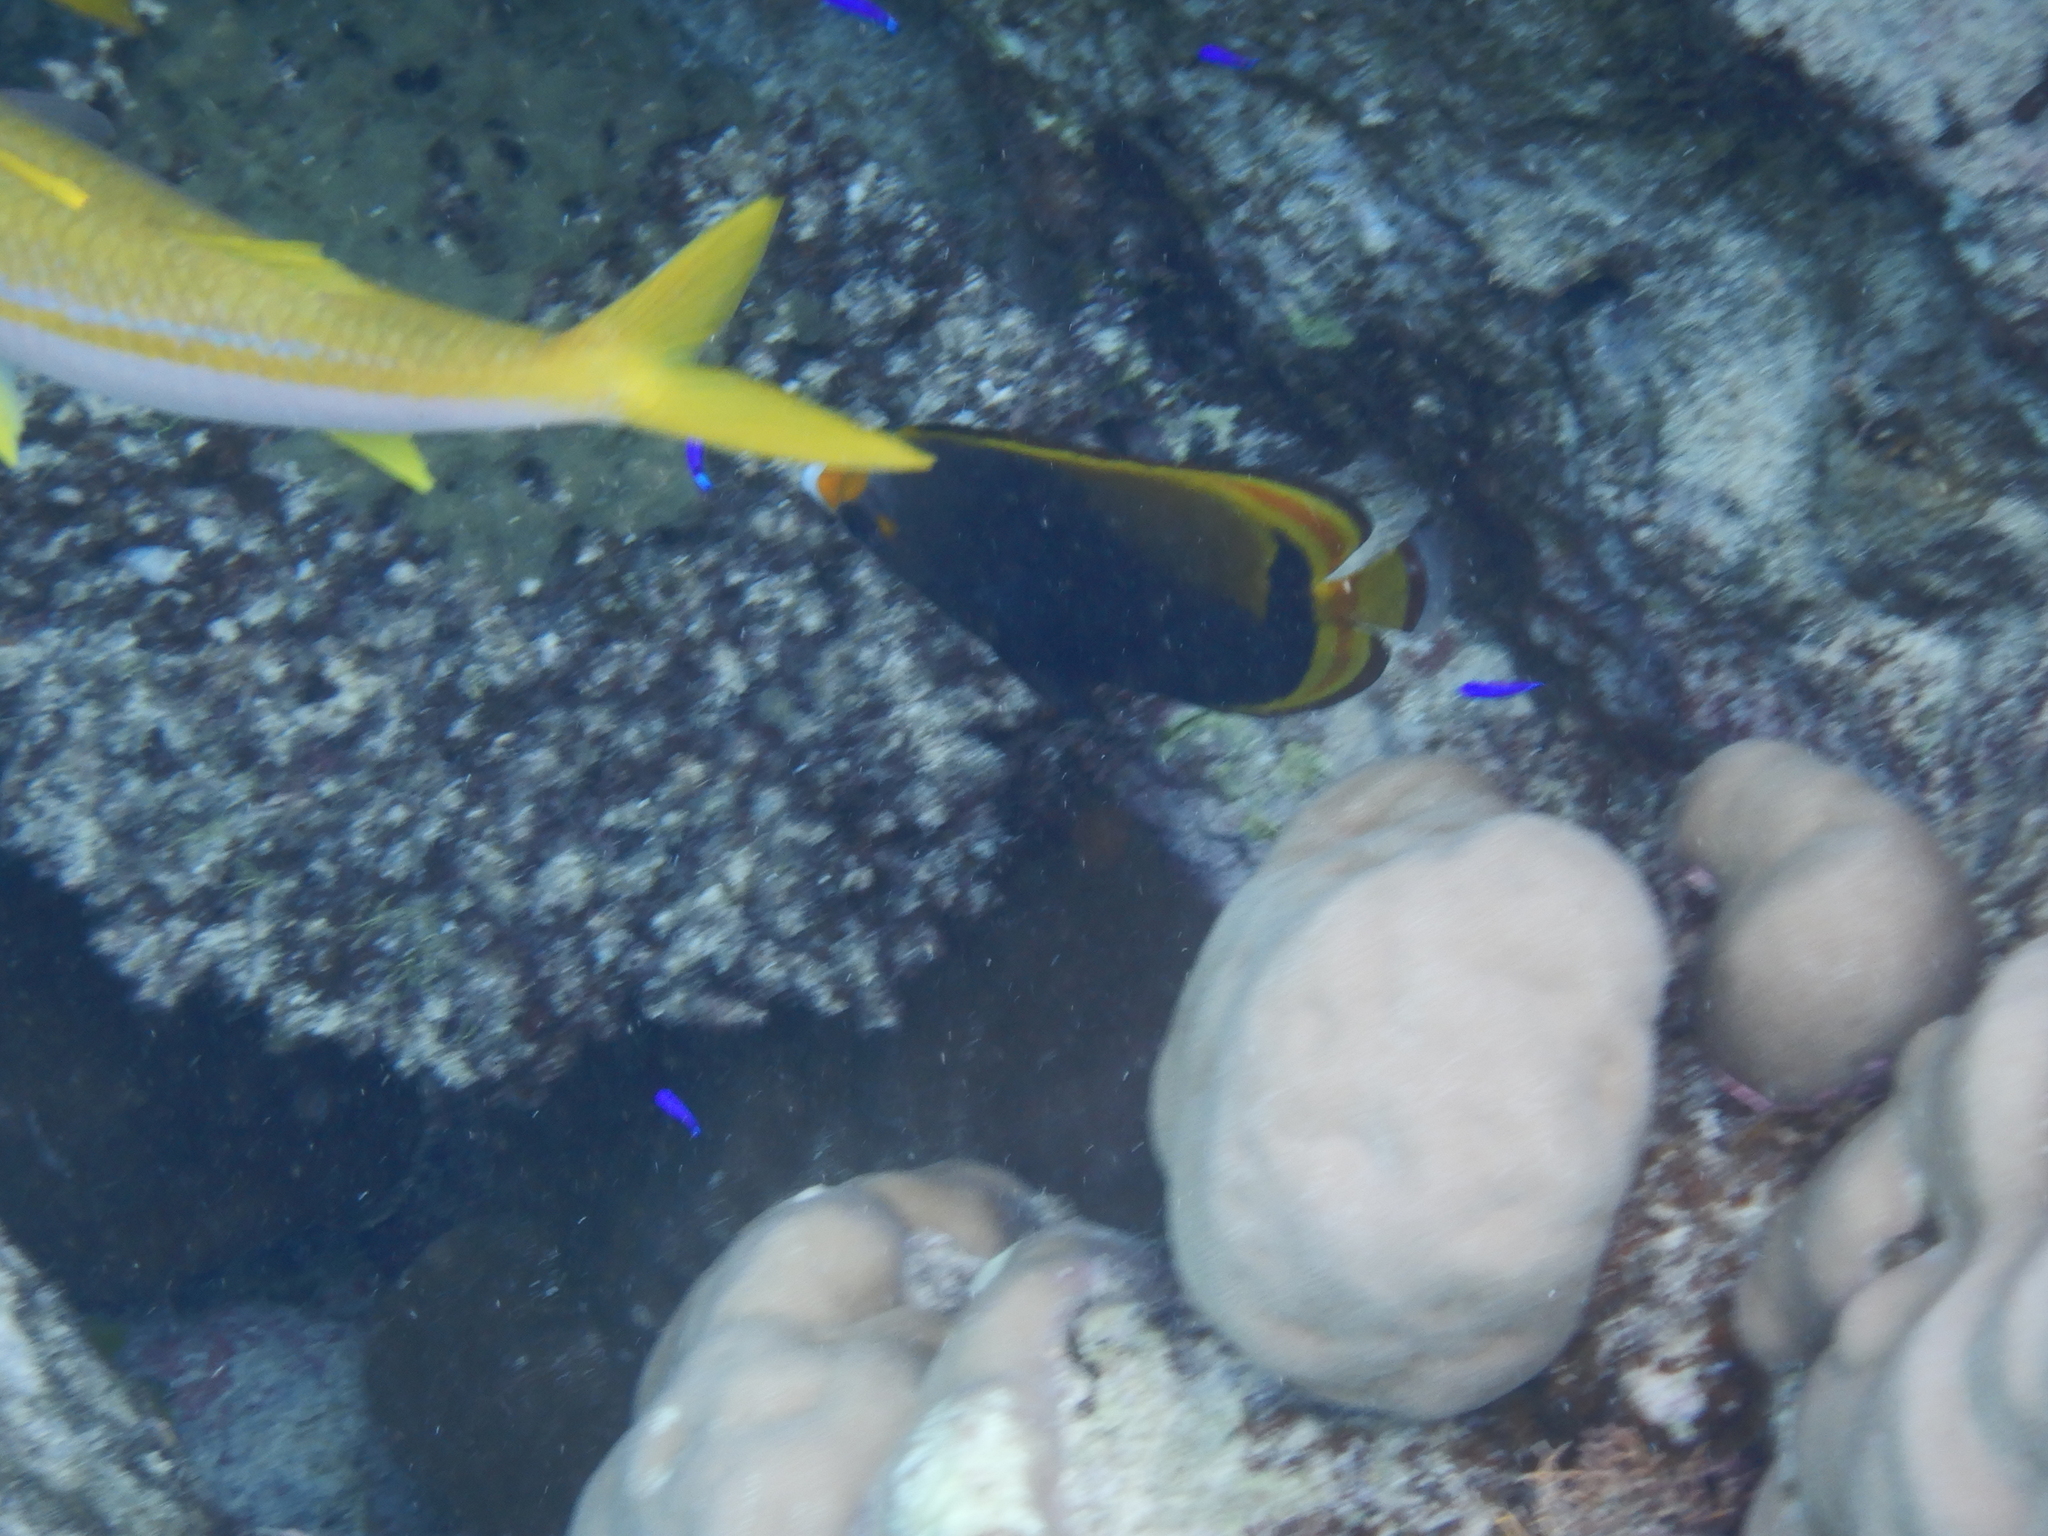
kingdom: Animalia
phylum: Chordata
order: Perciformes
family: Chaetodontidae
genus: Chaetodon
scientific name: Chaetodon flavirostris
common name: Black butterflyfish
